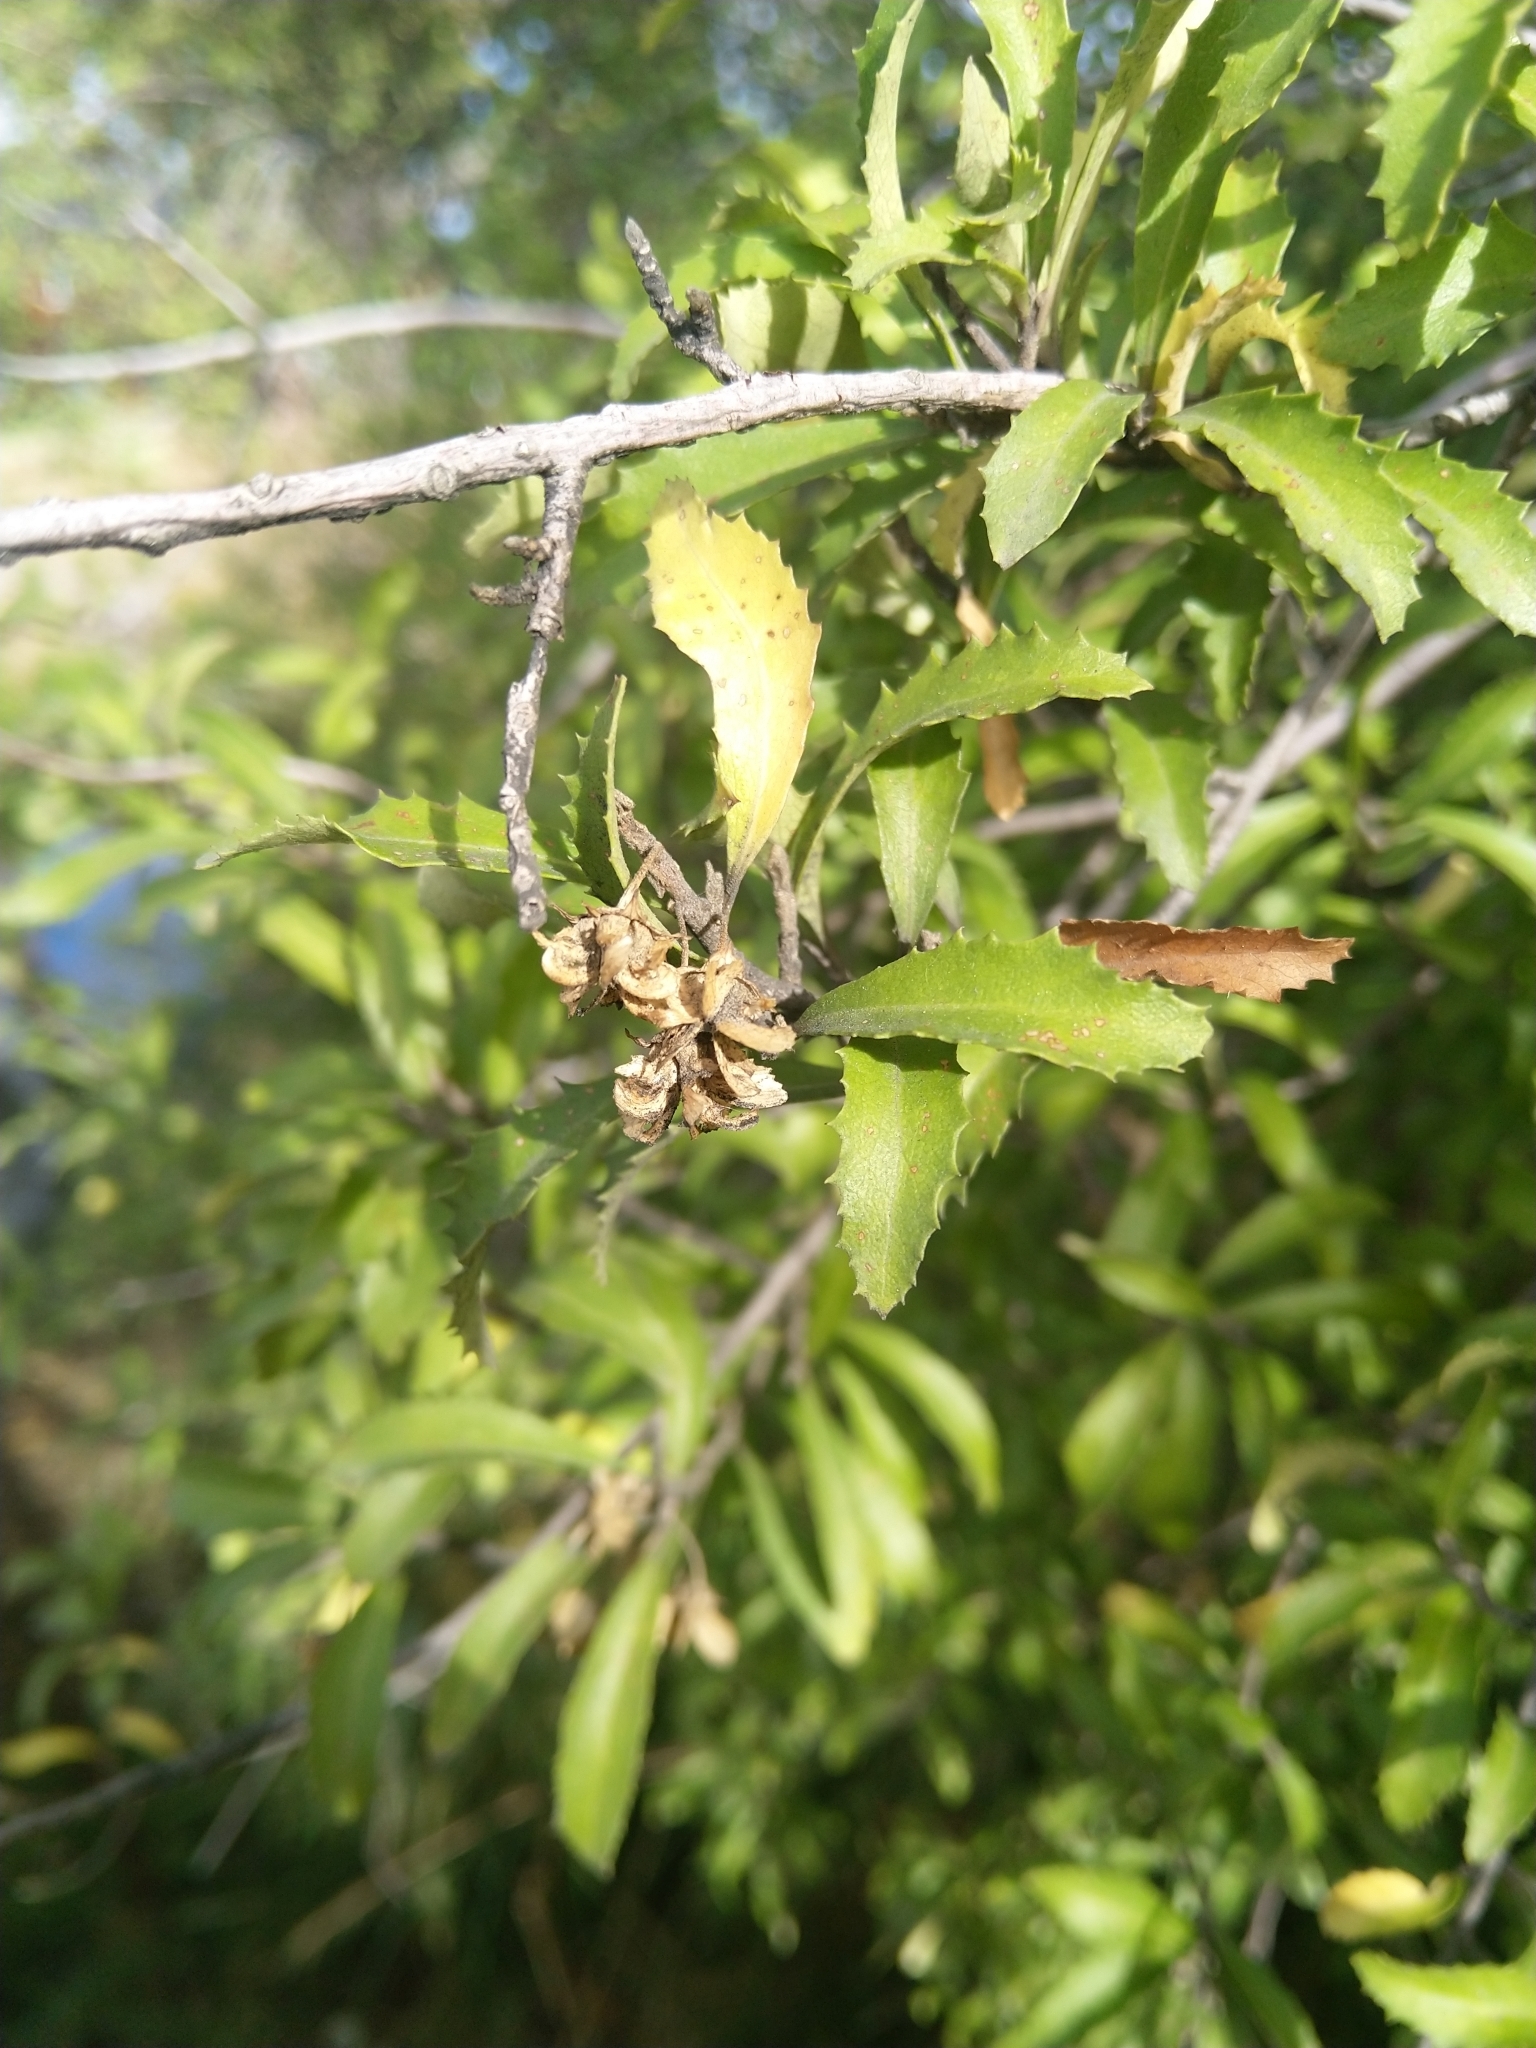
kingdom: Plantae
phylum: Tracheophyta
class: Magnoliopsida
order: Malvales
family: Malvaceae
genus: Hoheria
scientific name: Hoheria angustifolia
